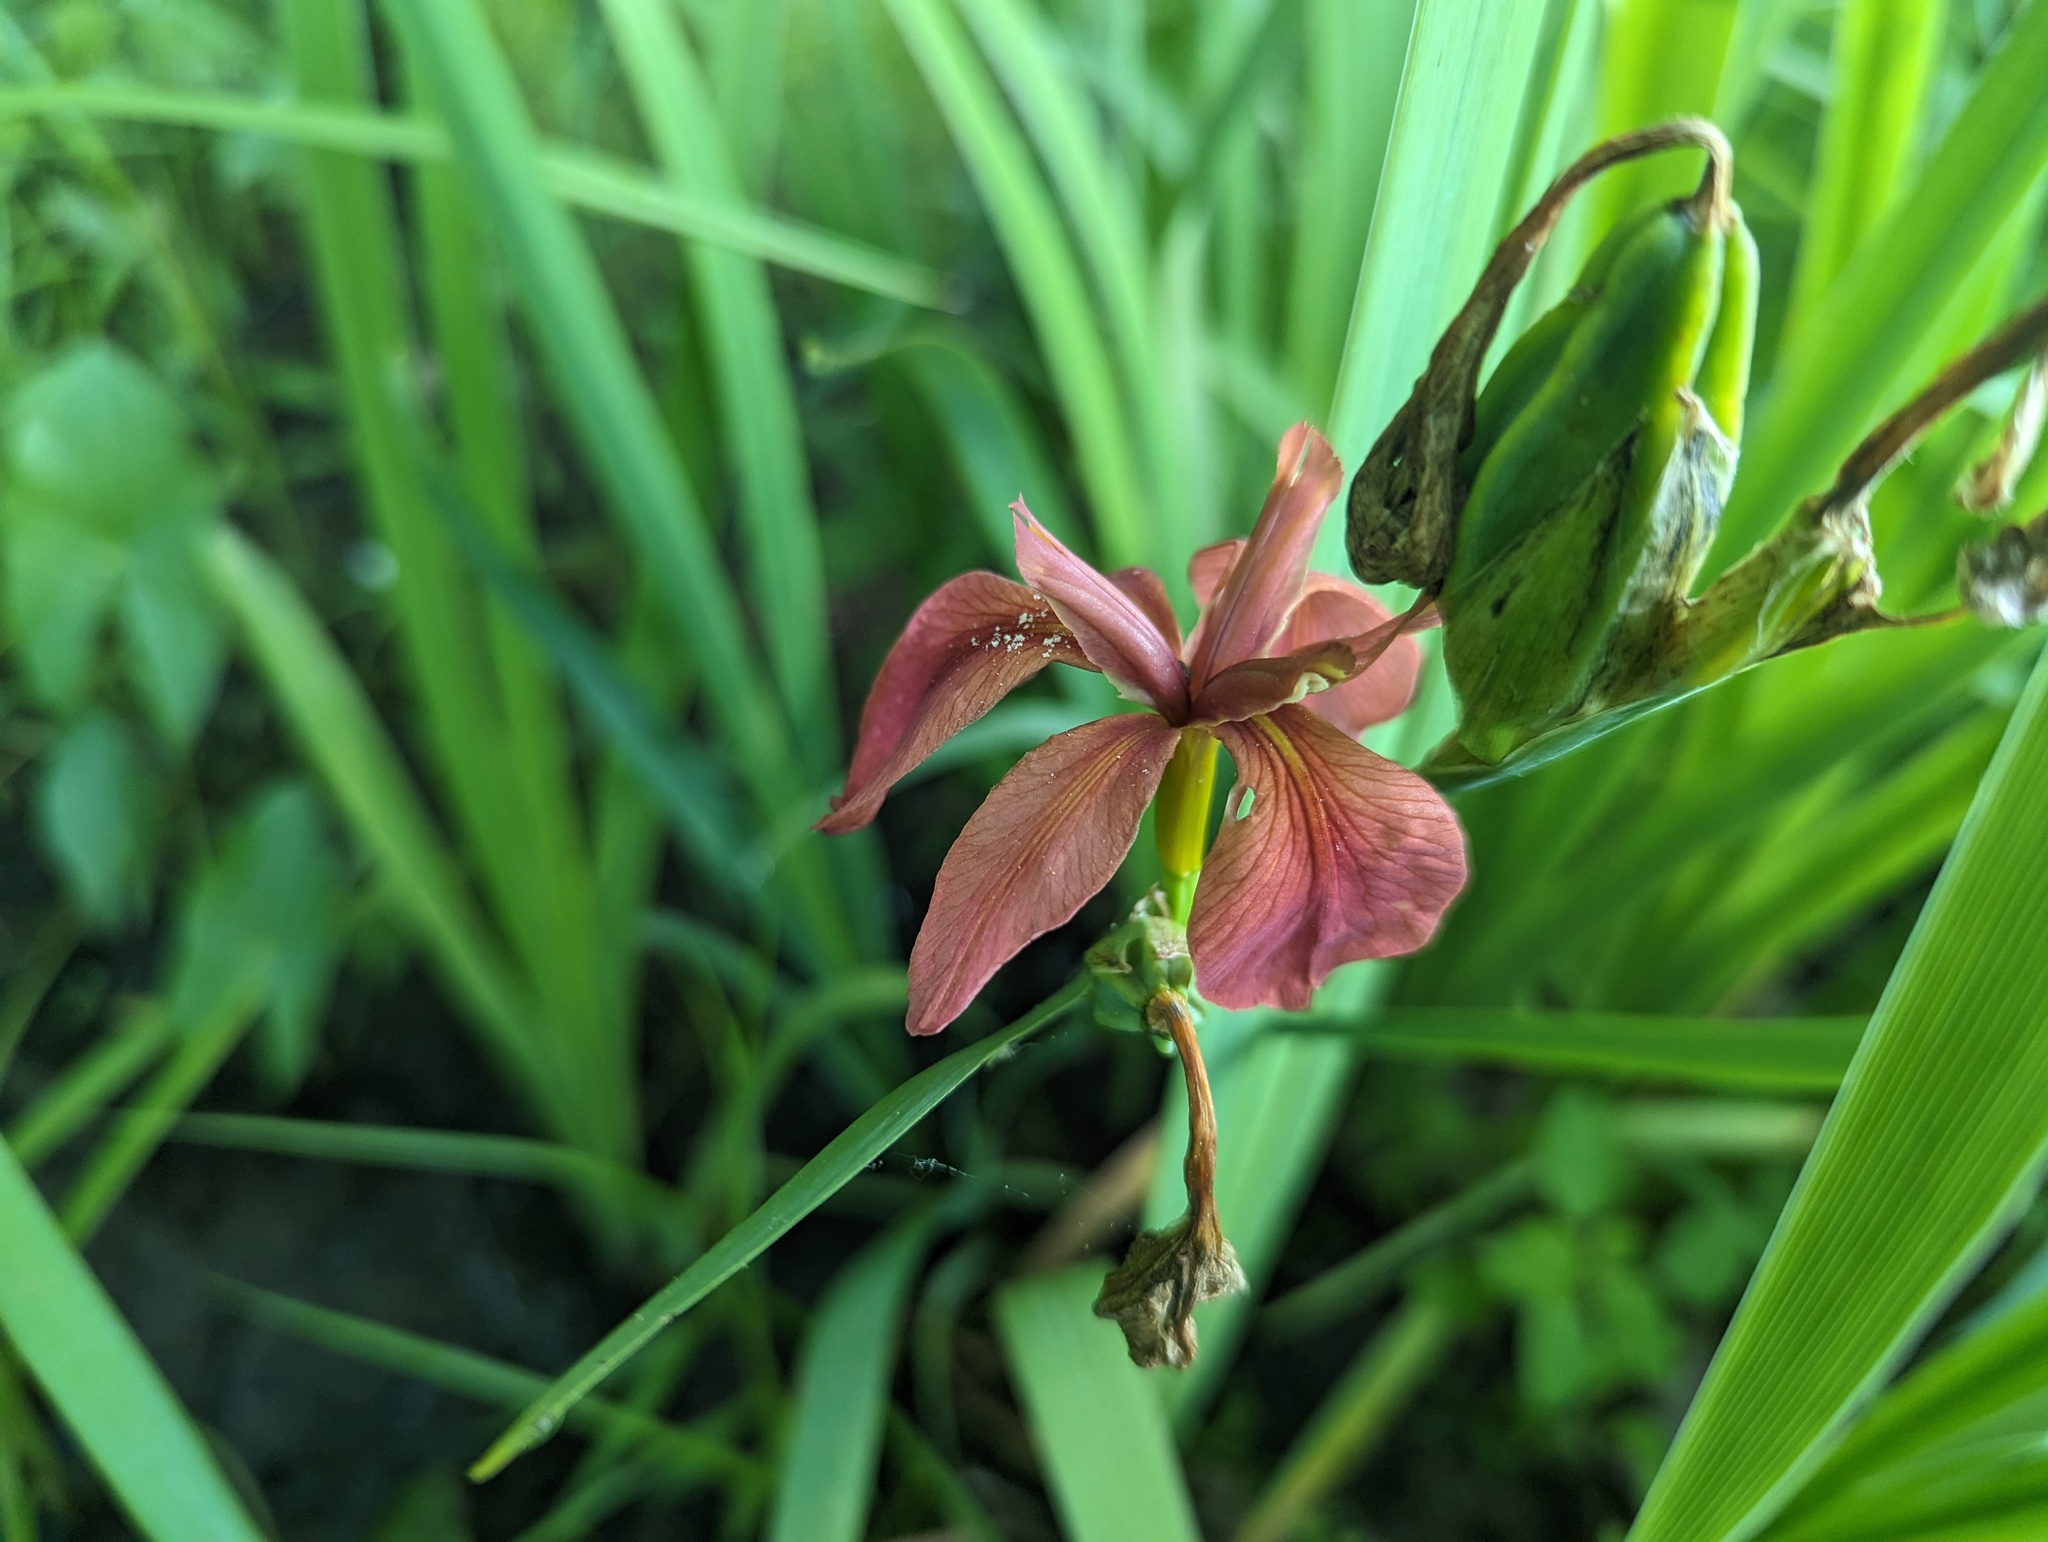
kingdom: Plantae
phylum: Tracheophyta
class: Liliopsida
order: Asparagales
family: Iridaceae
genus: Iris
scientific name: Iris fulva
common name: Copper iris
